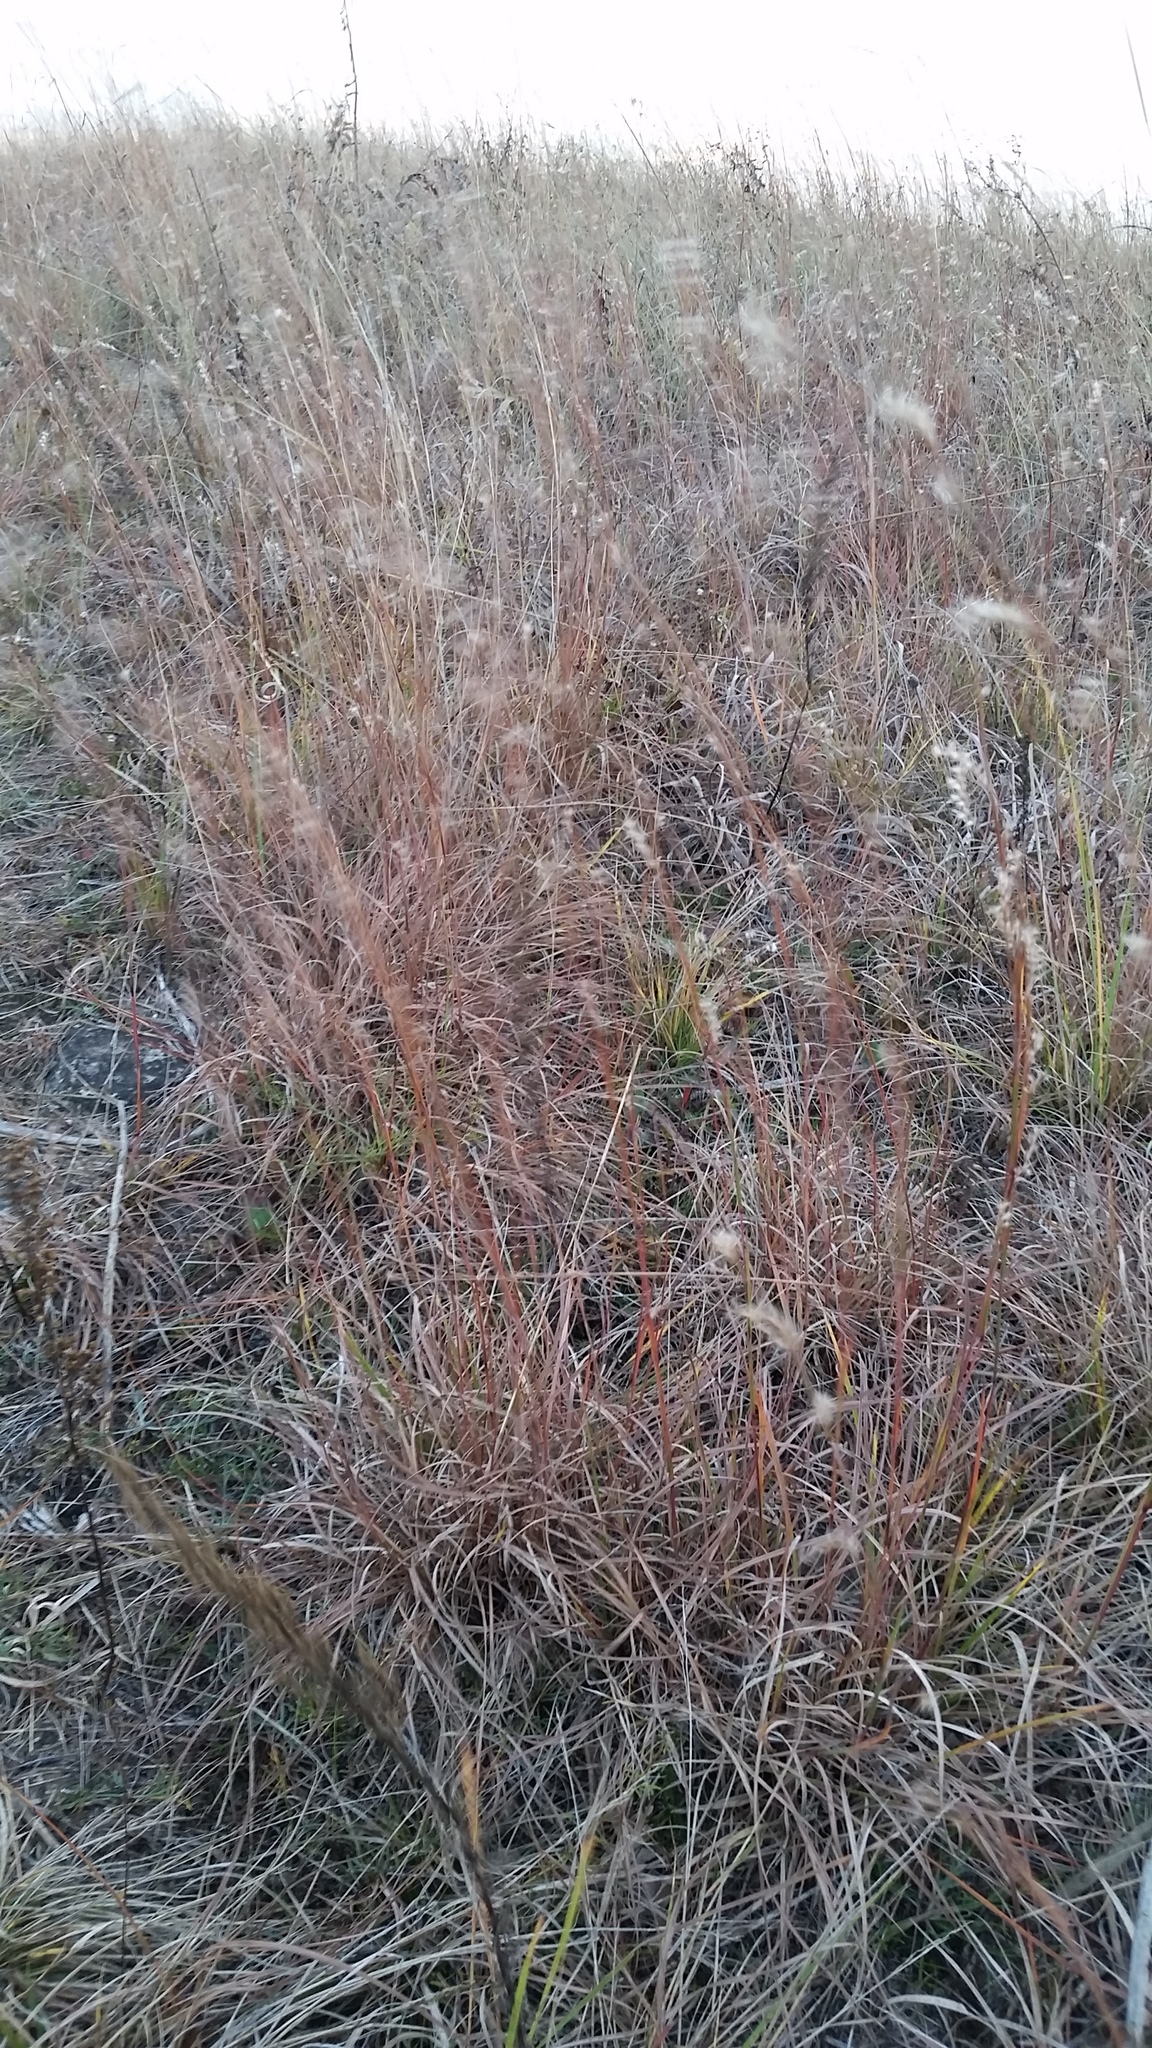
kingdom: Plantae
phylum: Tracheophyta
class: Liliopsida
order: Poales
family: Poaceae
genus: Schizachyrium
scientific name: Schizachyrium scoparium
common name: Little bluestem
